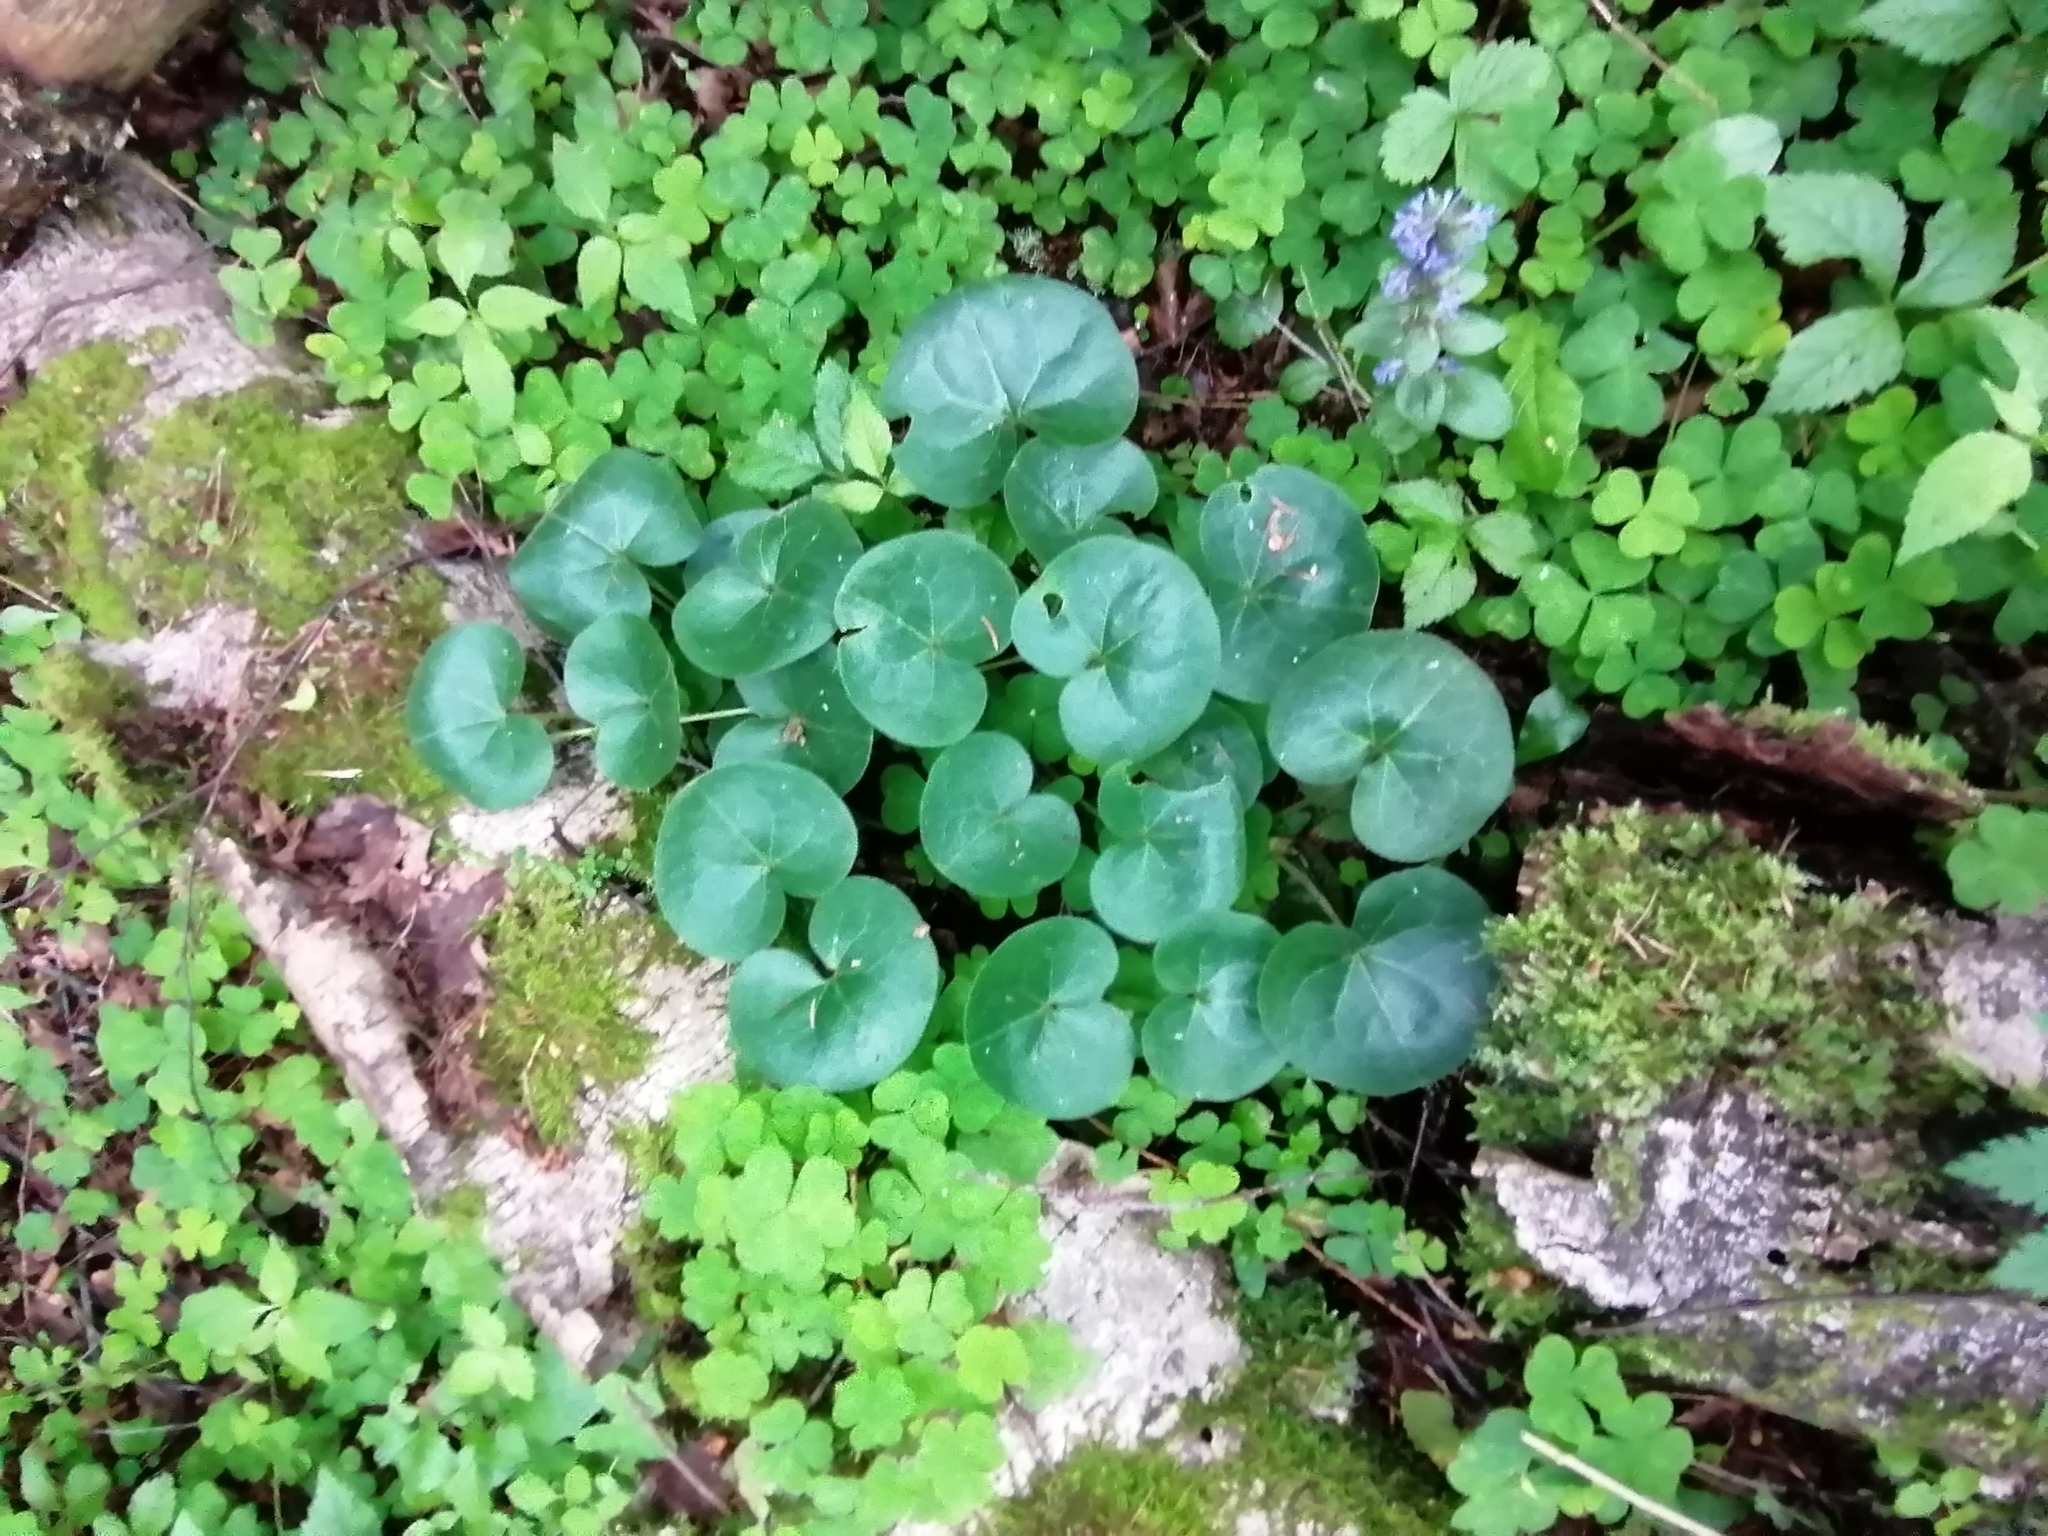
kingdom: Plantae
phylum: Tracheophyta
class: Magnoliopsida
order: Piperales
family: Aristolochiaceae
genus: Asarum
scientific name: Asarum europaeum
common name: Asarabacca
